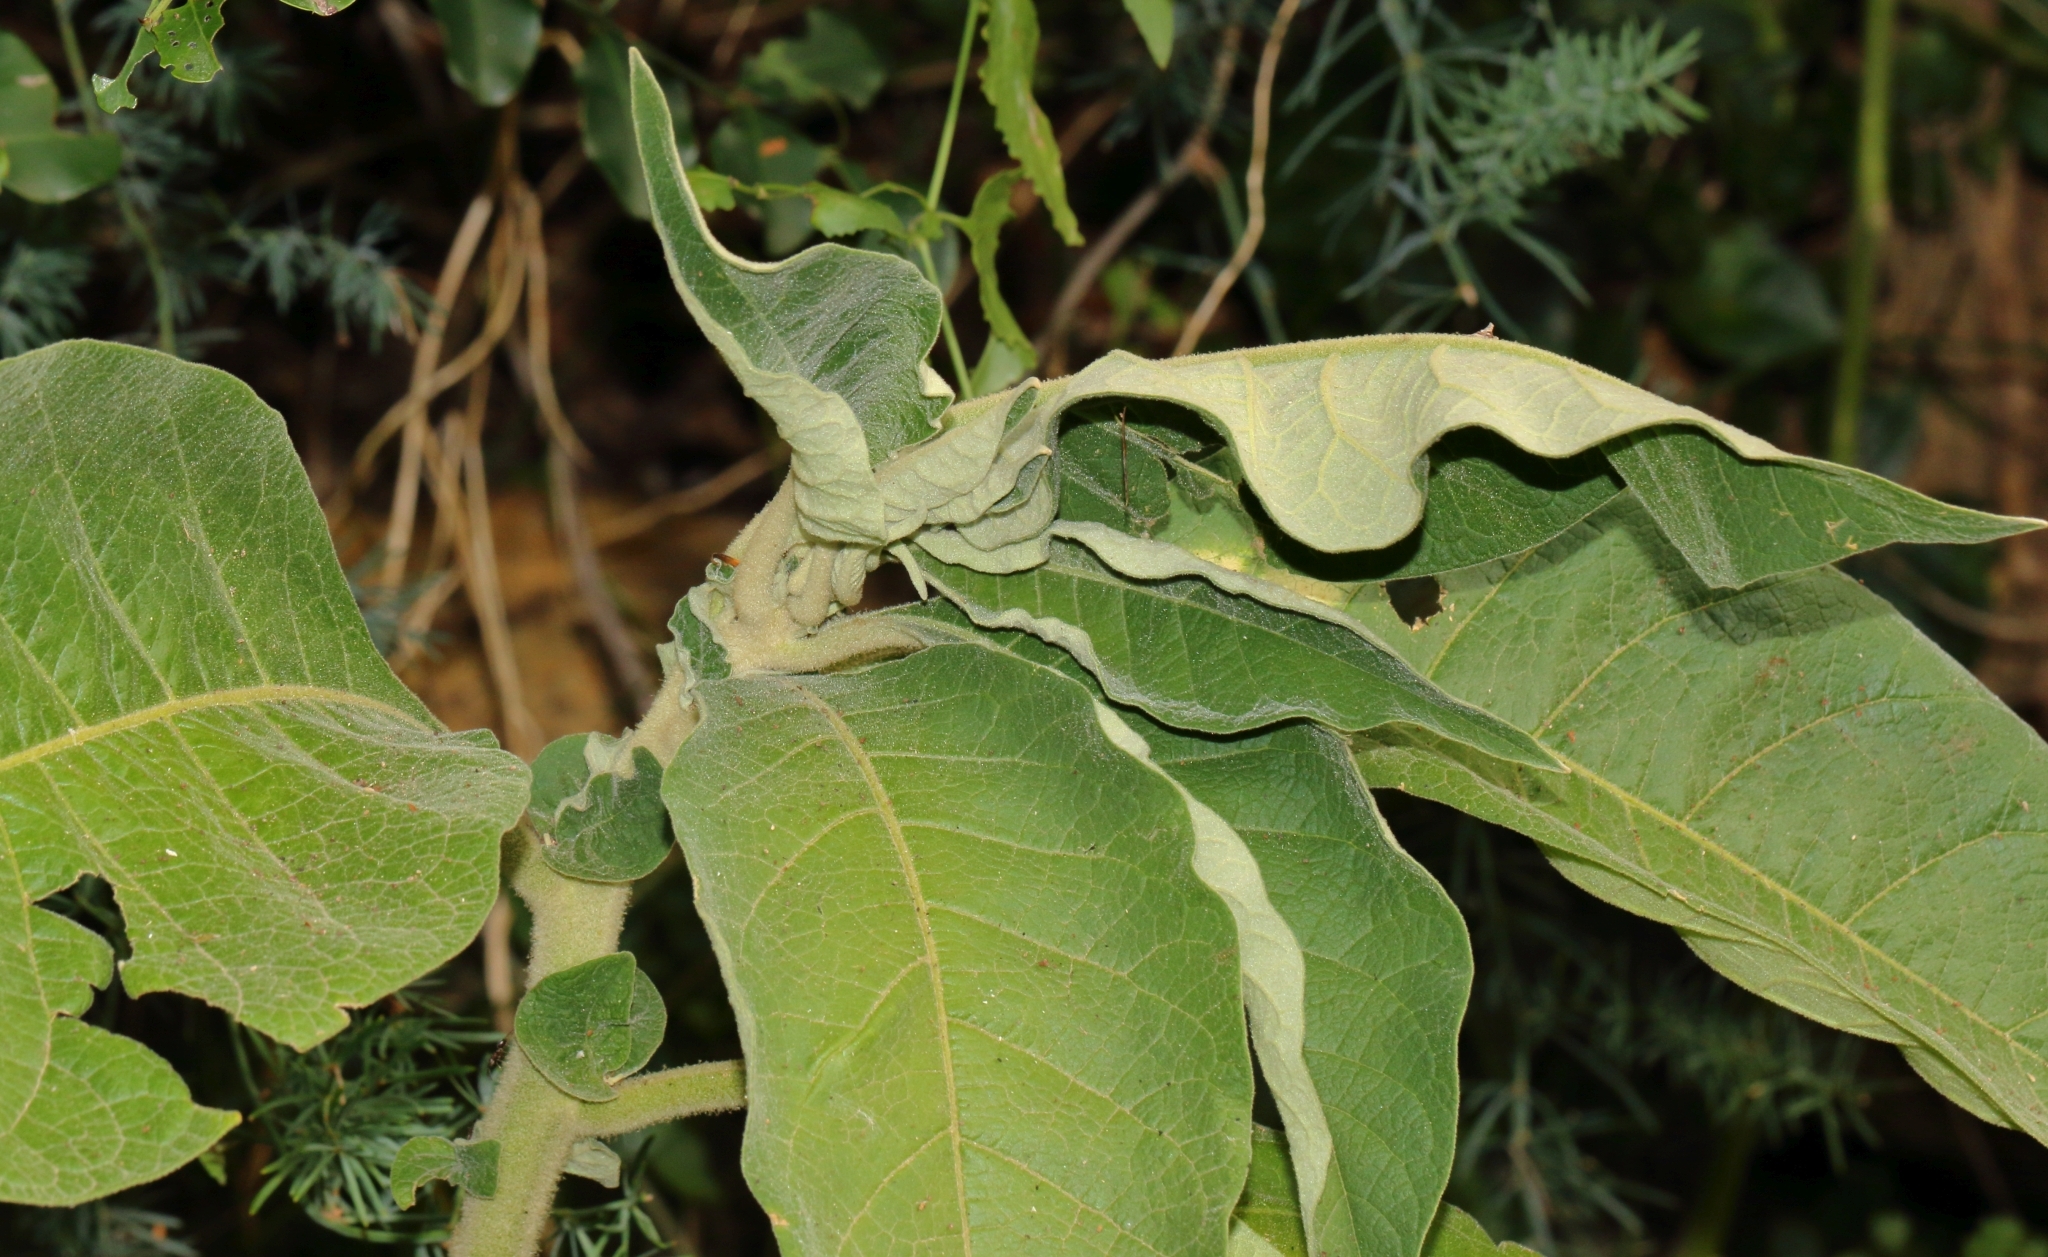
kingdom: Plantae
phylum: Tracheophyta
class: Magnoliopsida
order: Solanales
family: Solanaceae
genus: Solanum
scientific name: Solanum mauritianum
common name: Earleaf nightshade
